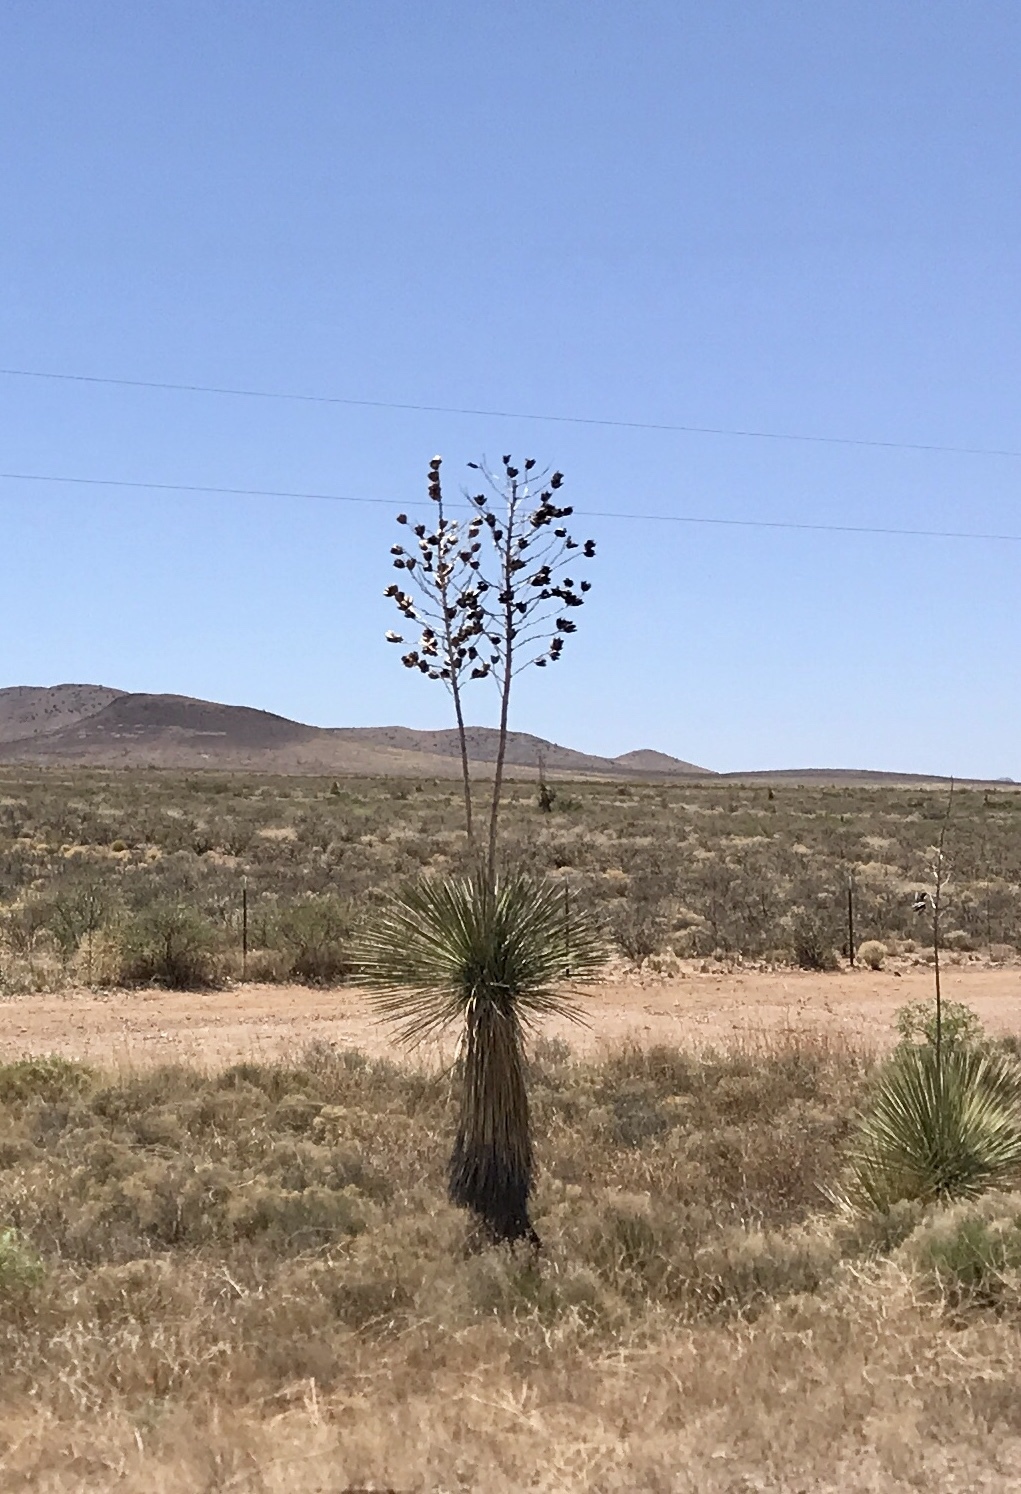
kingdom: Plantae
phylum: Tracheophyta
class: Liliopsida
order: Asparagales
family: Asparagaceae
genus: Yucca
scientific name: Yucca elata
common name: Palmella
